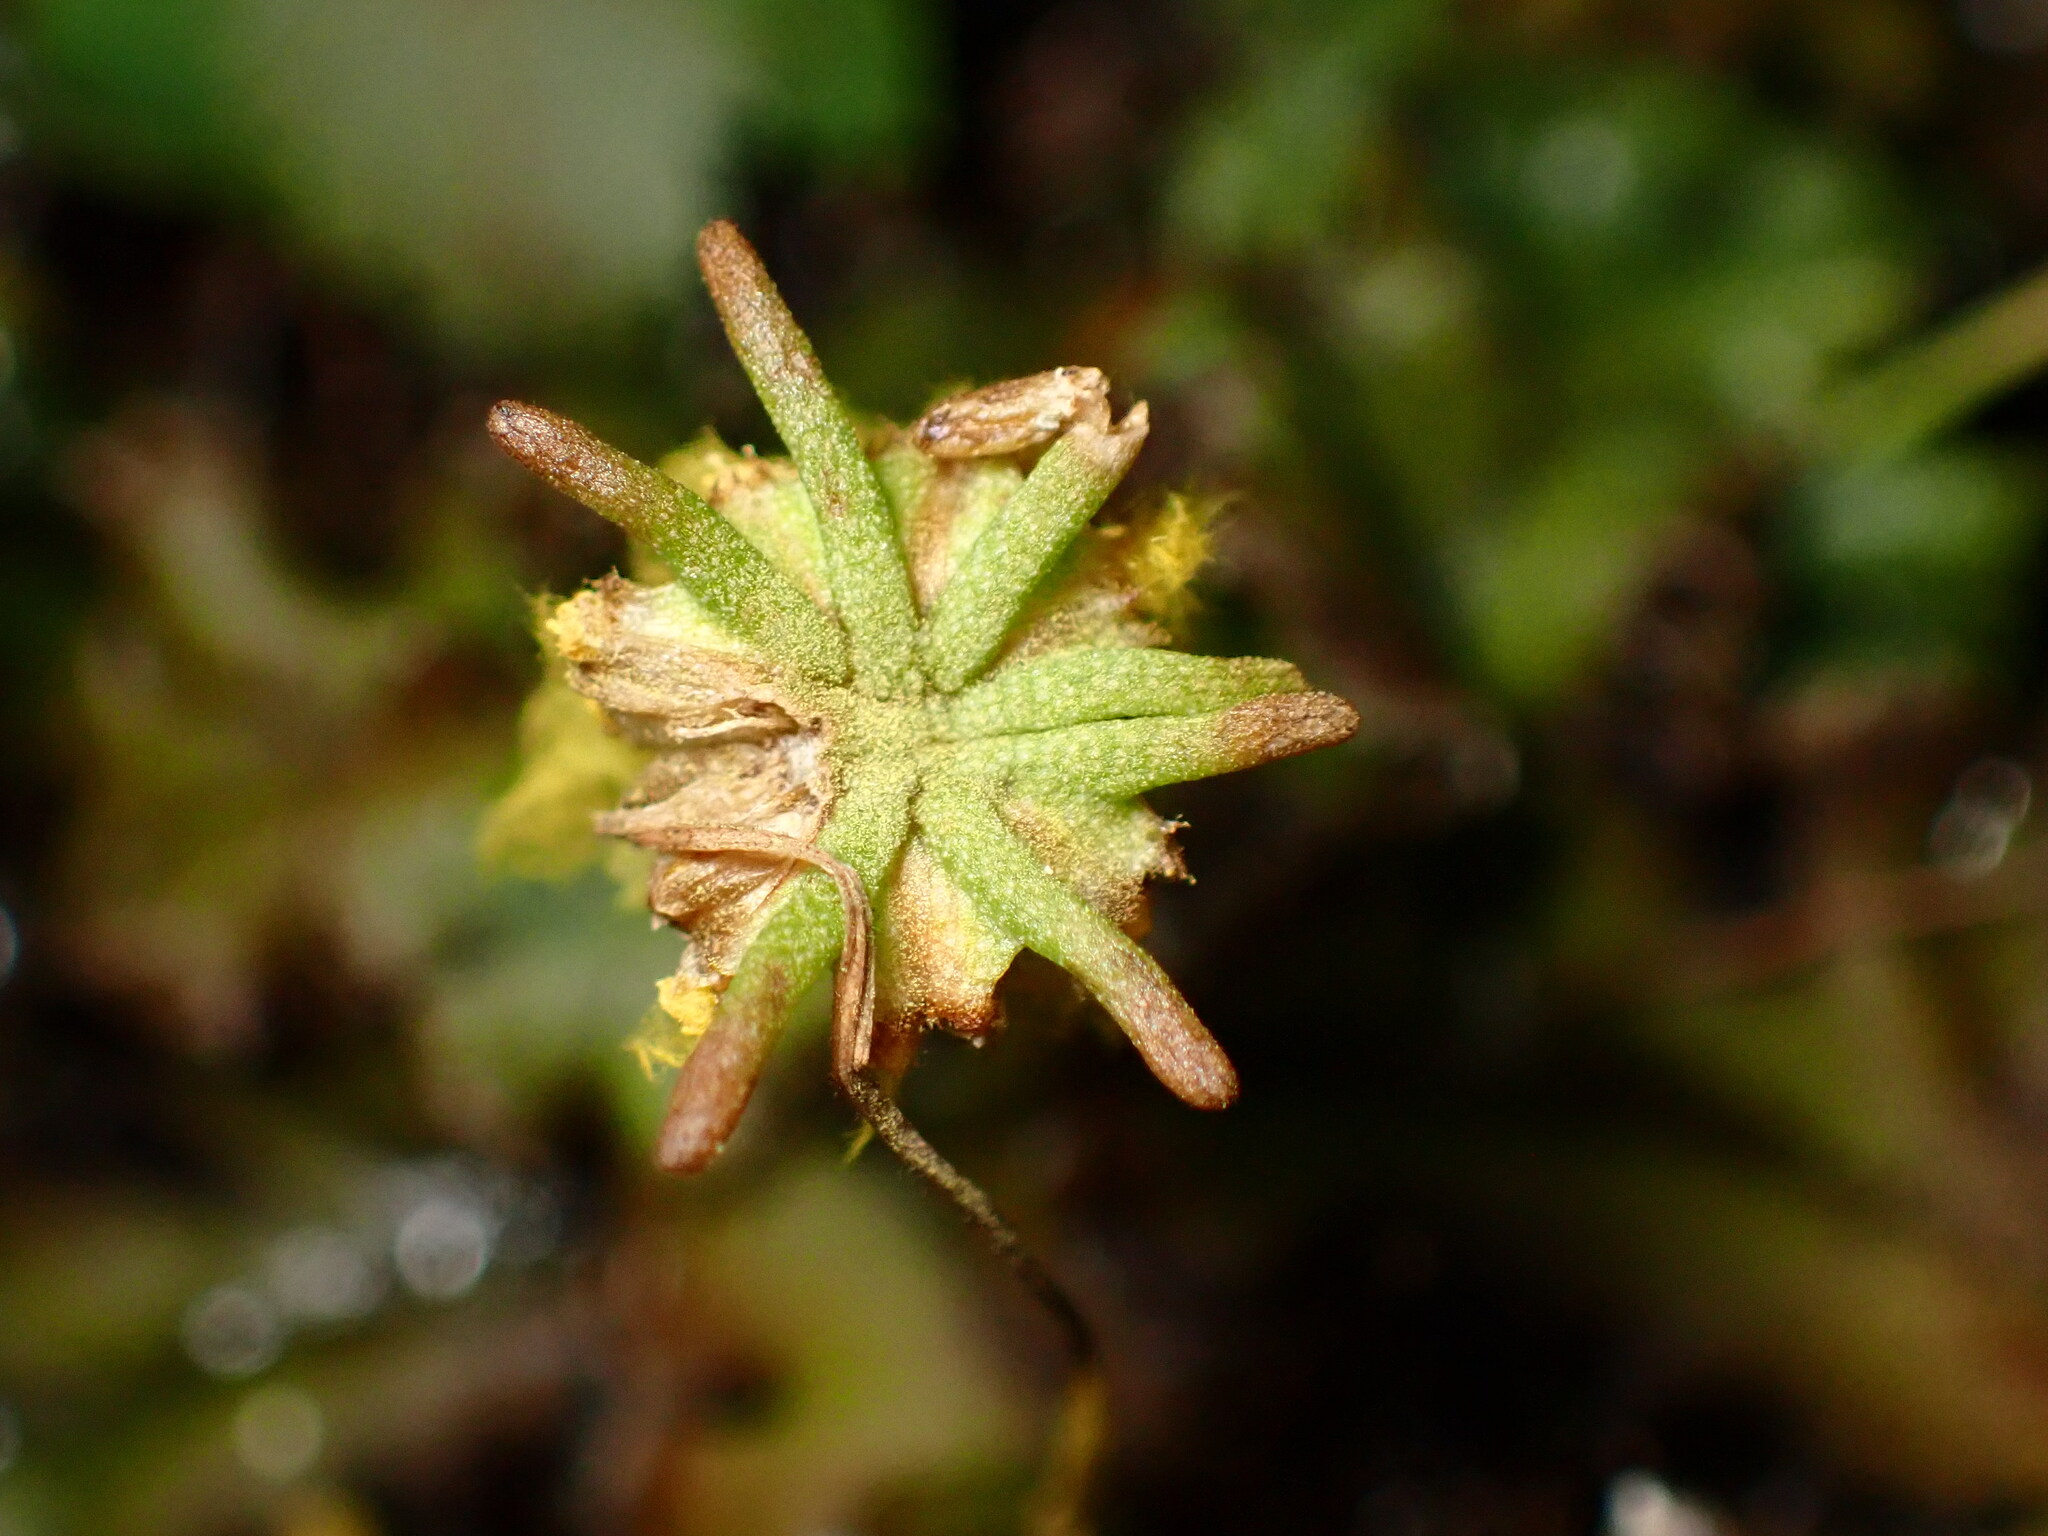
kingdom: Plantae
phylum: Marchantiophyta
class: Marchantiopsida
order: Marchantiales
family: Marchantiaceae
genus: Marchantia
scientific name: Marchantia polymorpha
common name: Common liverwort
